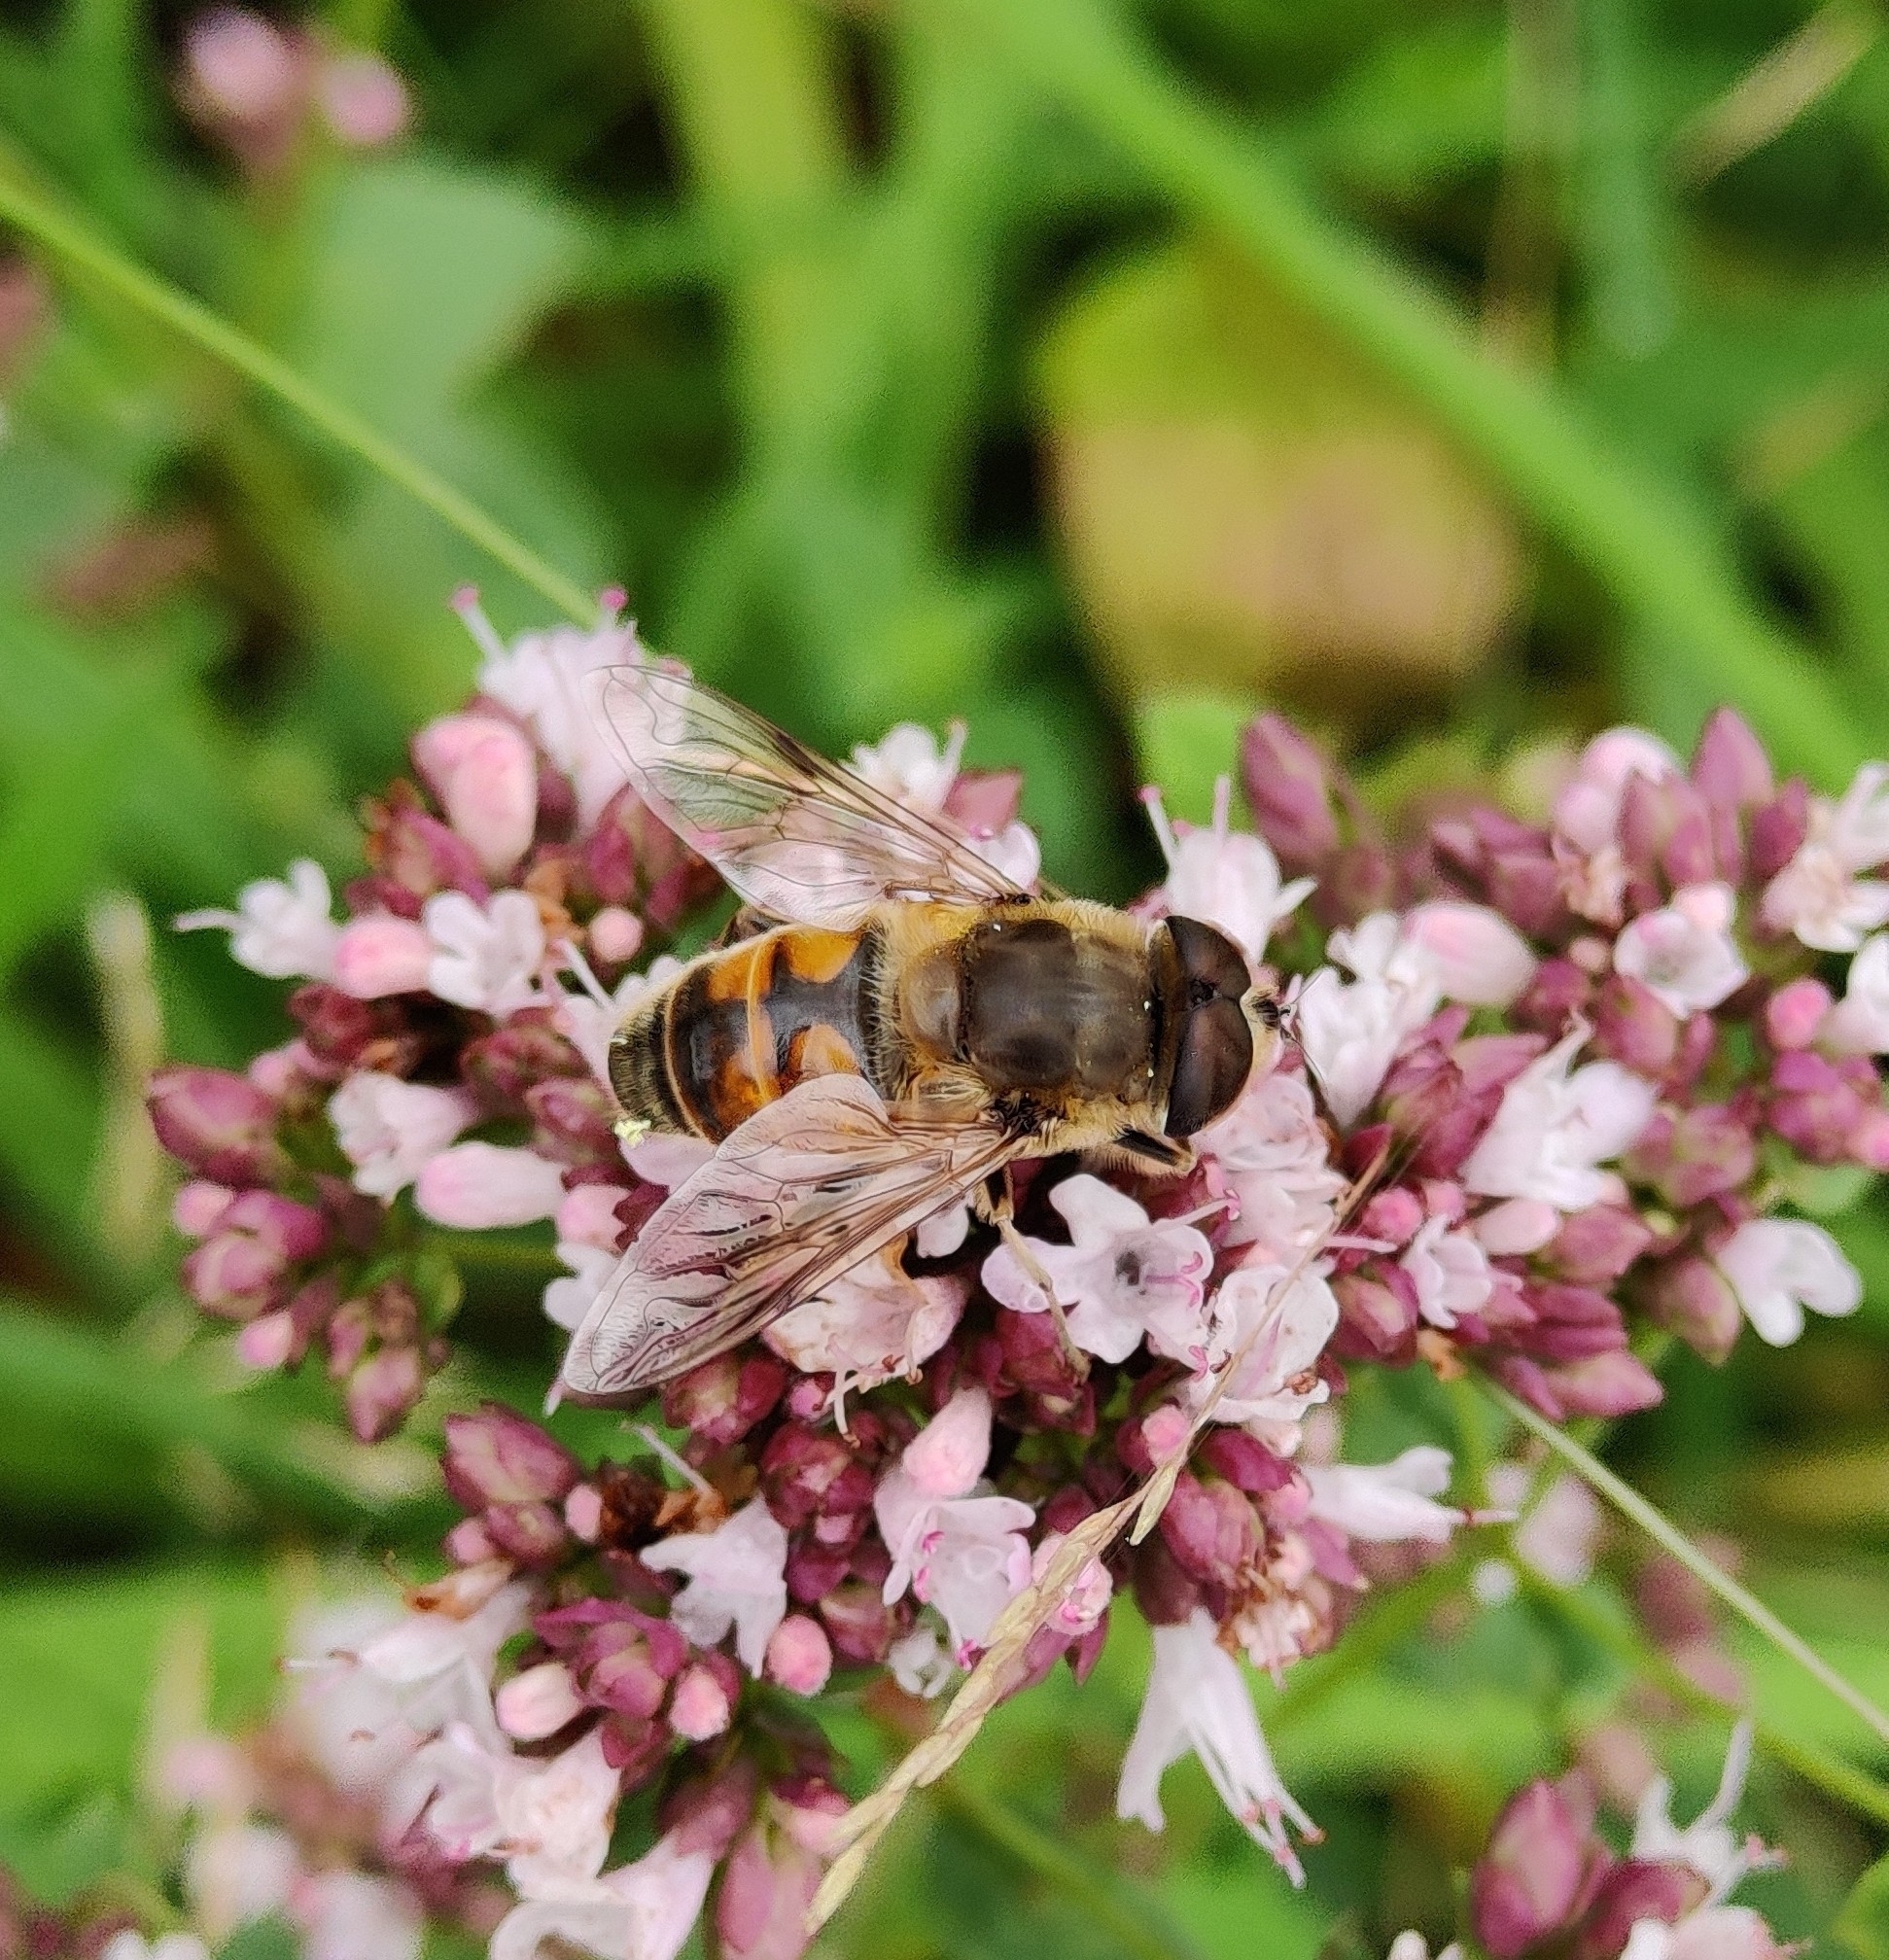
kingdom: Animalia
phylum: Arthropoda
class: Insecta
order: Diptera
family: Syrphidae
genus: Eristalis
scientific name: Eristalis tenax
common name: Drone fly
